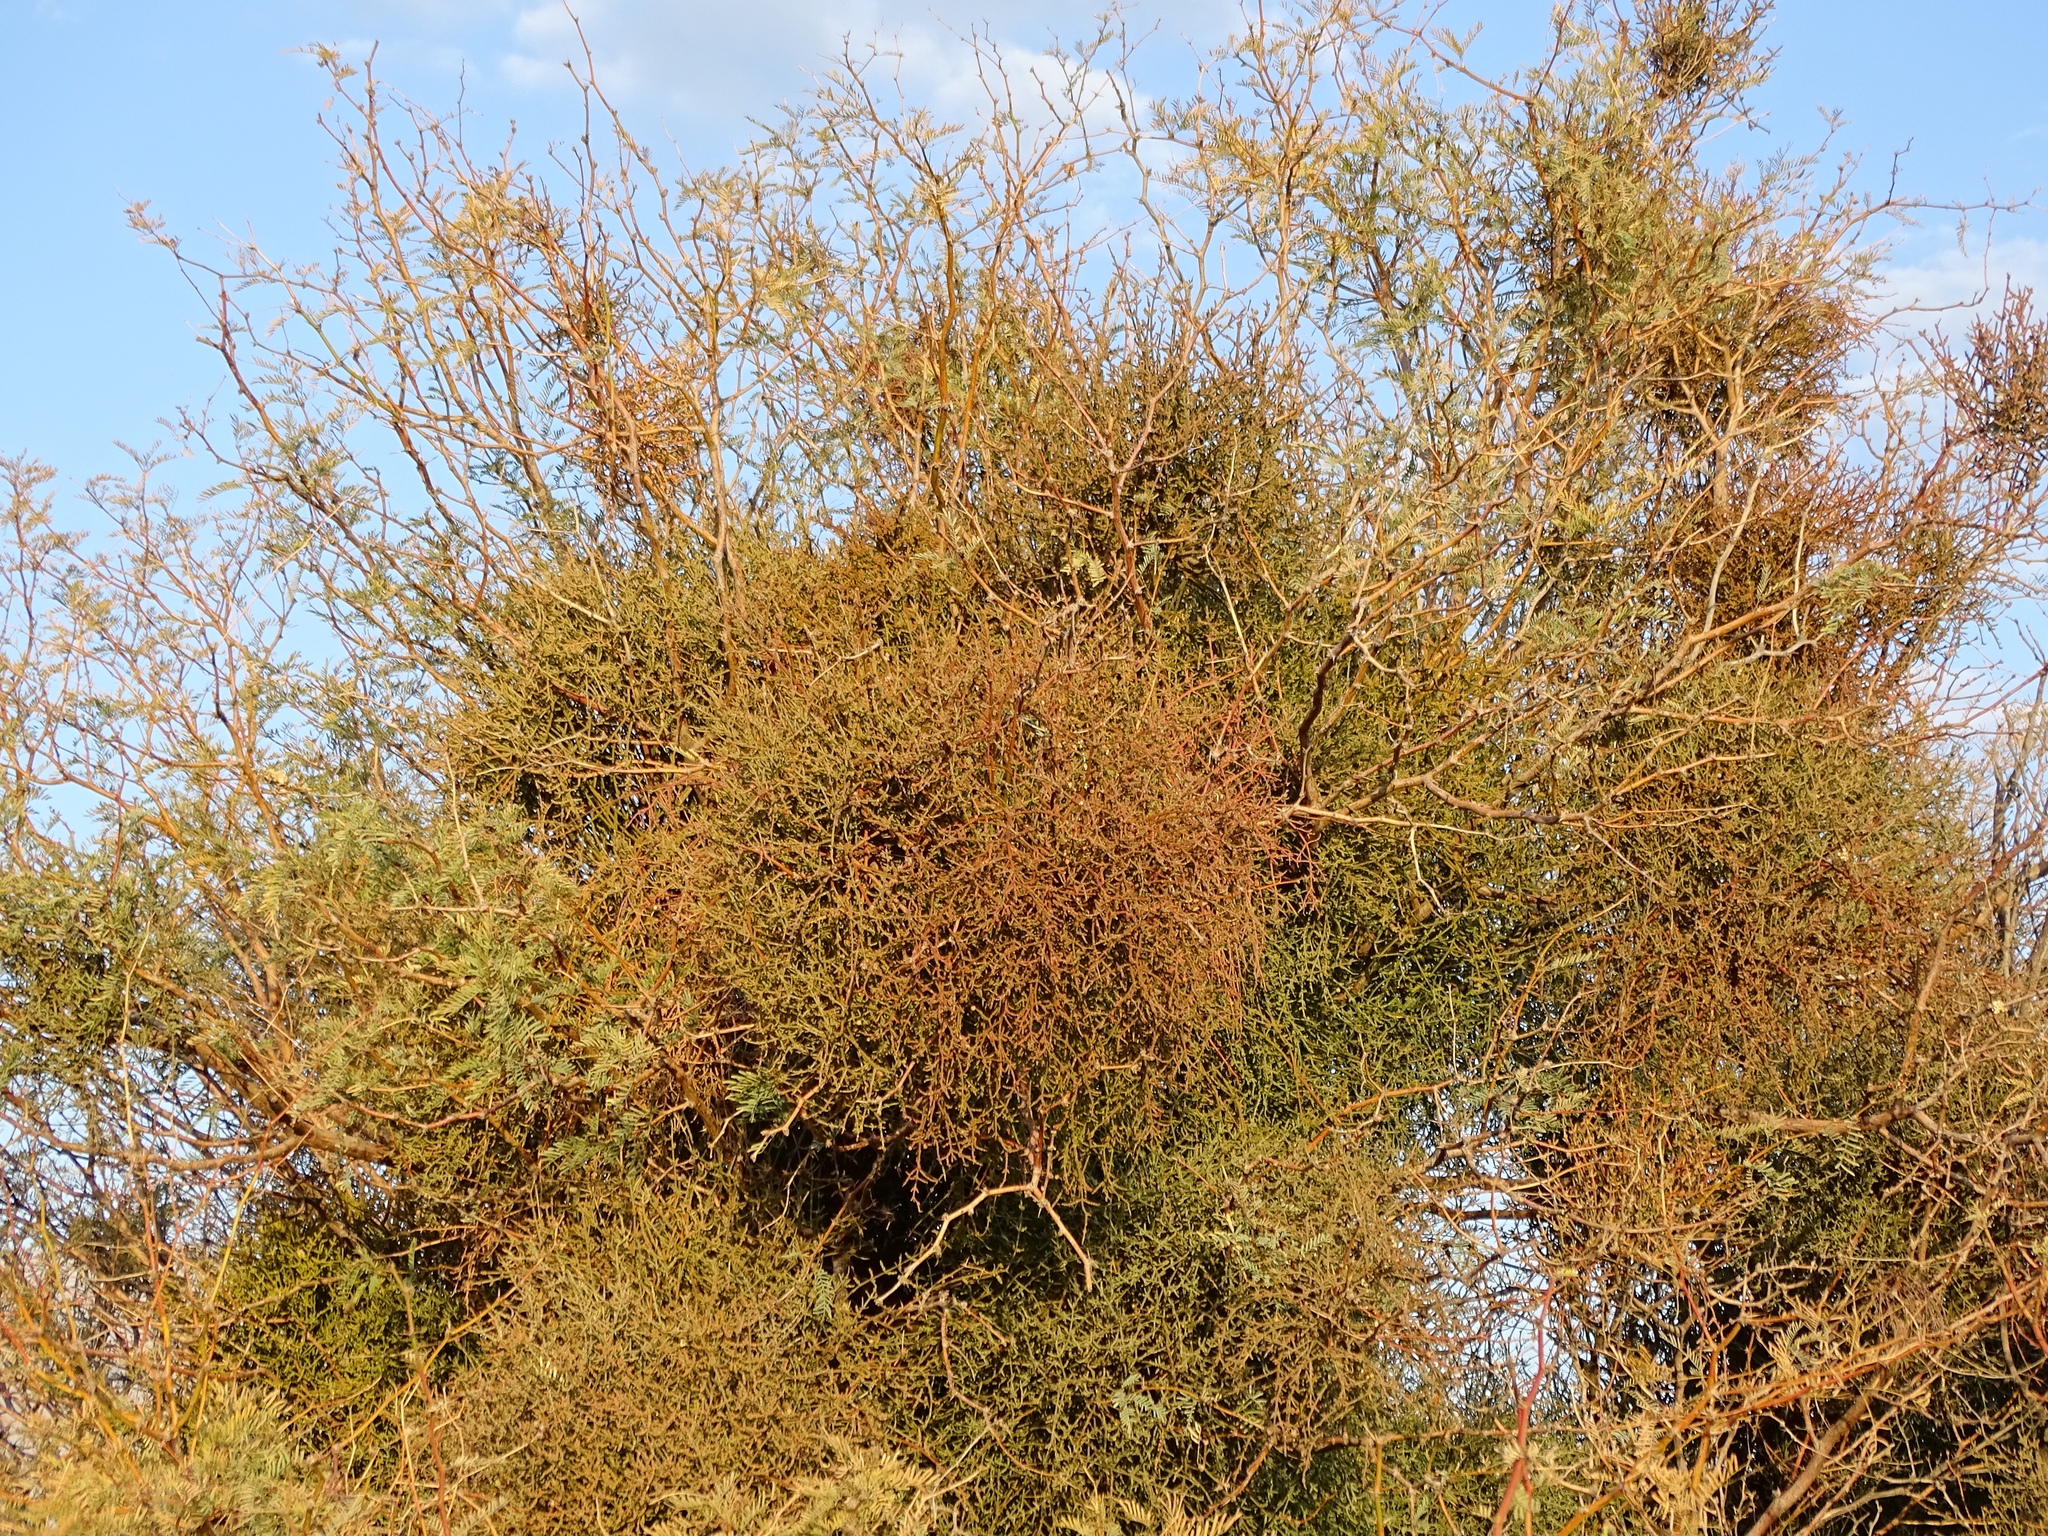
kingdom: Plantae
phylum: Tracheophyta
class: Magnoliopsida
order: Santalales
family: Viscaceae
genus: Phoradendron
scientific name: Phoradendron californicum
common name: Acacia mistletoe
